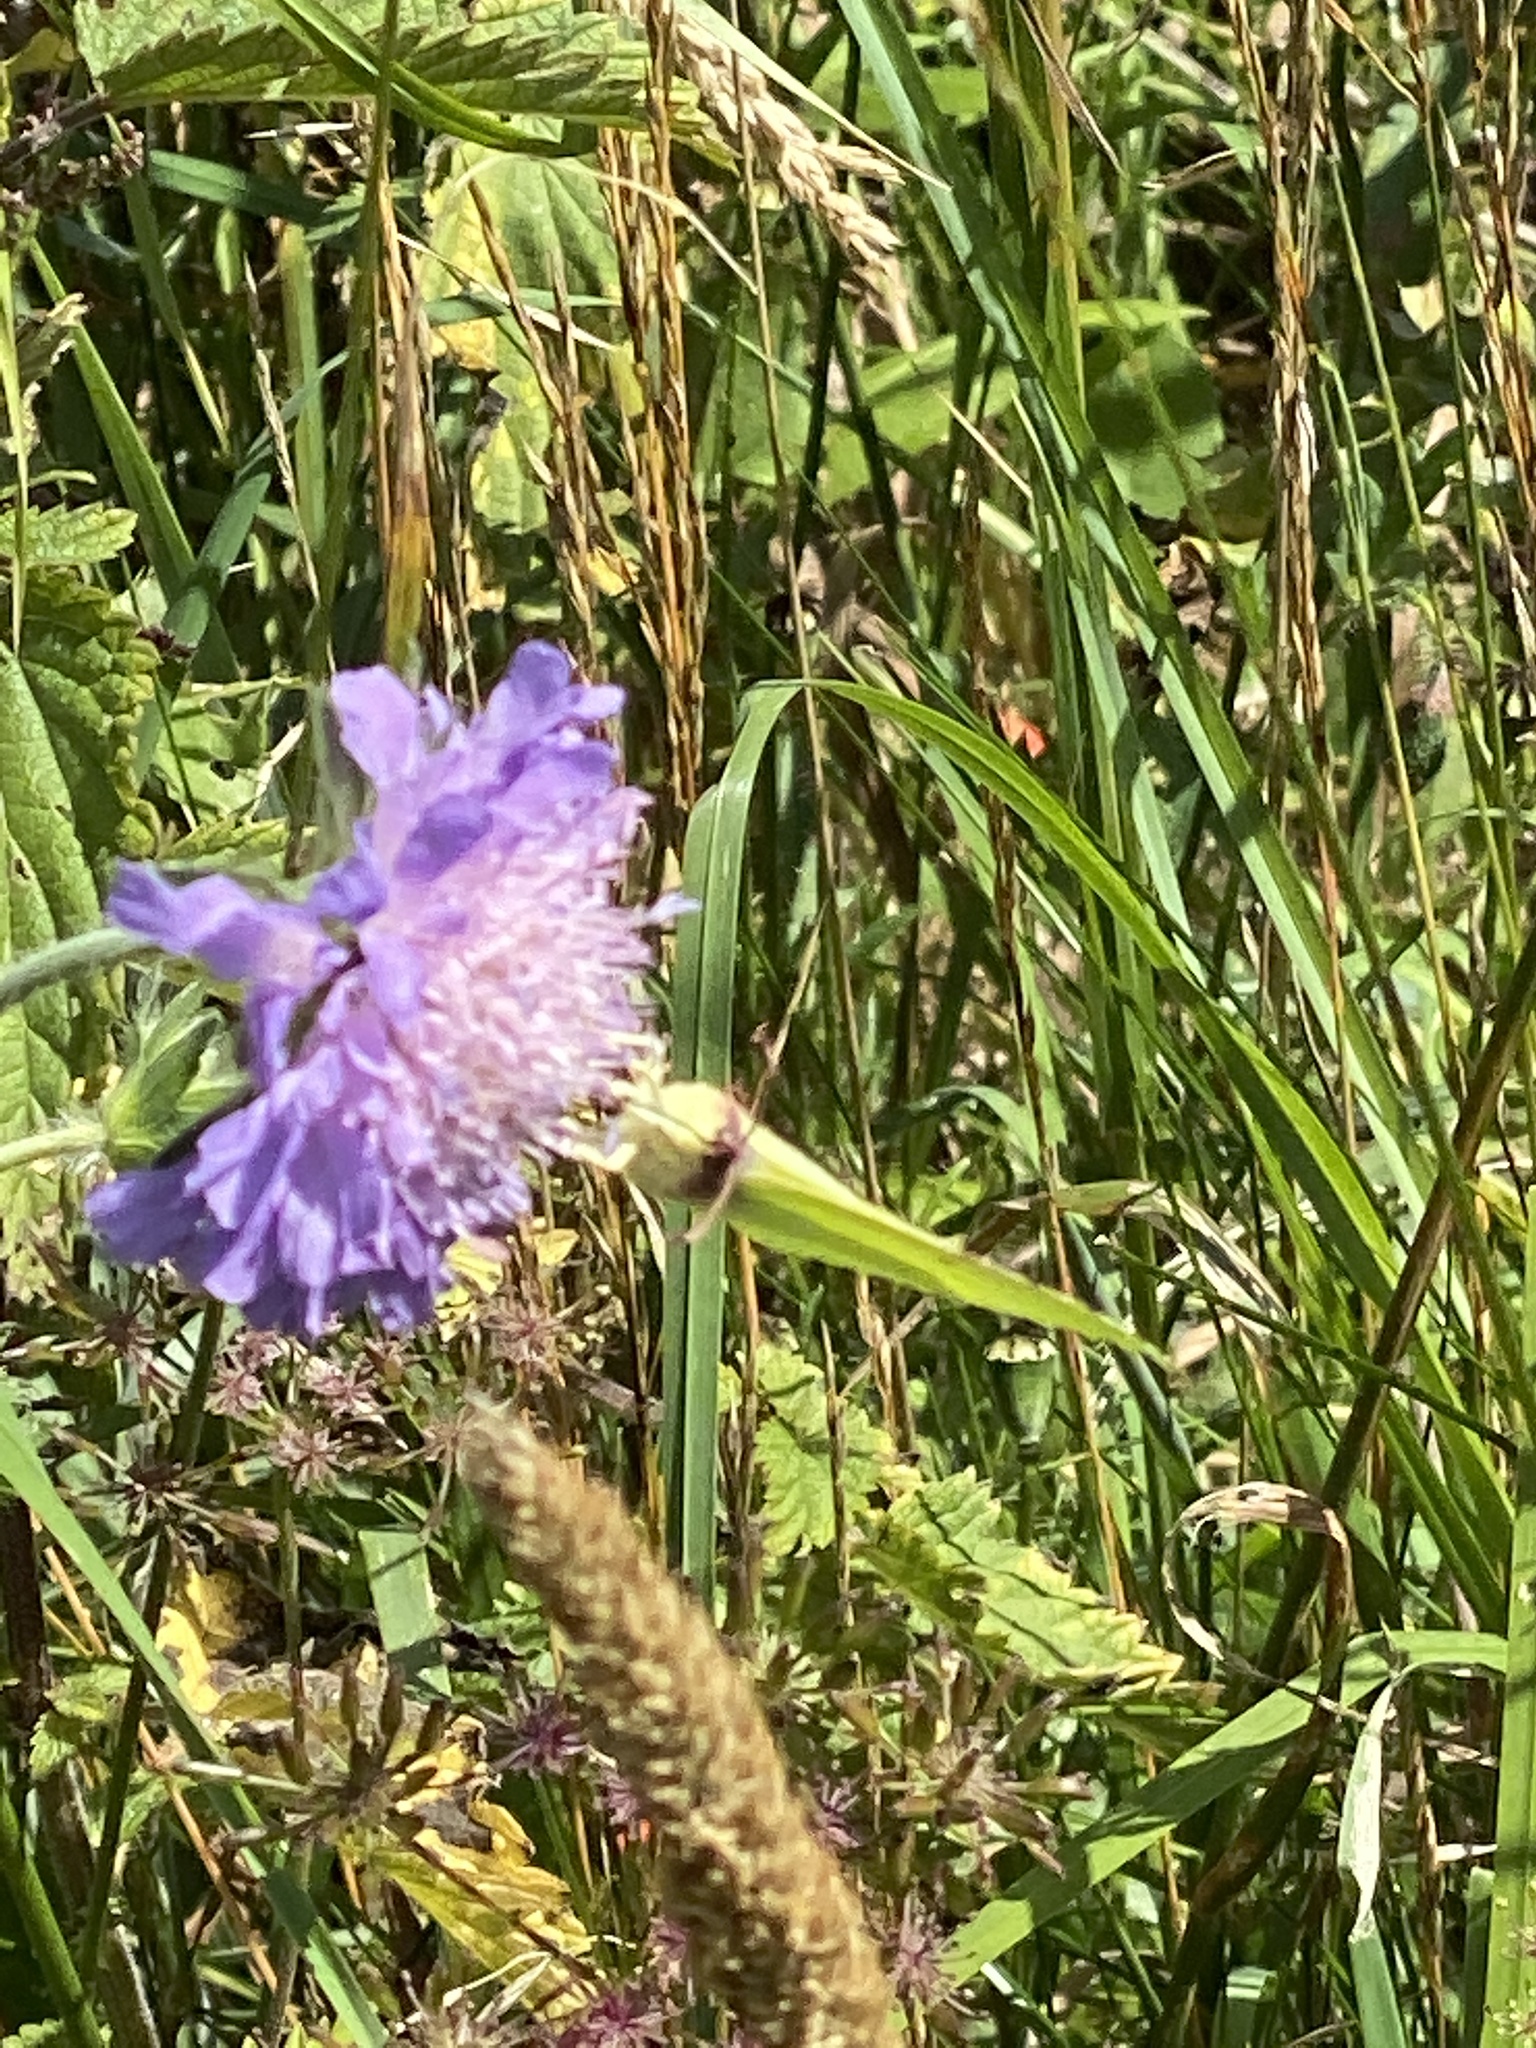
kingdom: Animalia
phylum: Arthropoda
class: Insecta
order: Lepidoptera
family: Pieridae
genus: Gonepteryx
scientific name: Gonepteryx rhamni
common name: Brimstone
